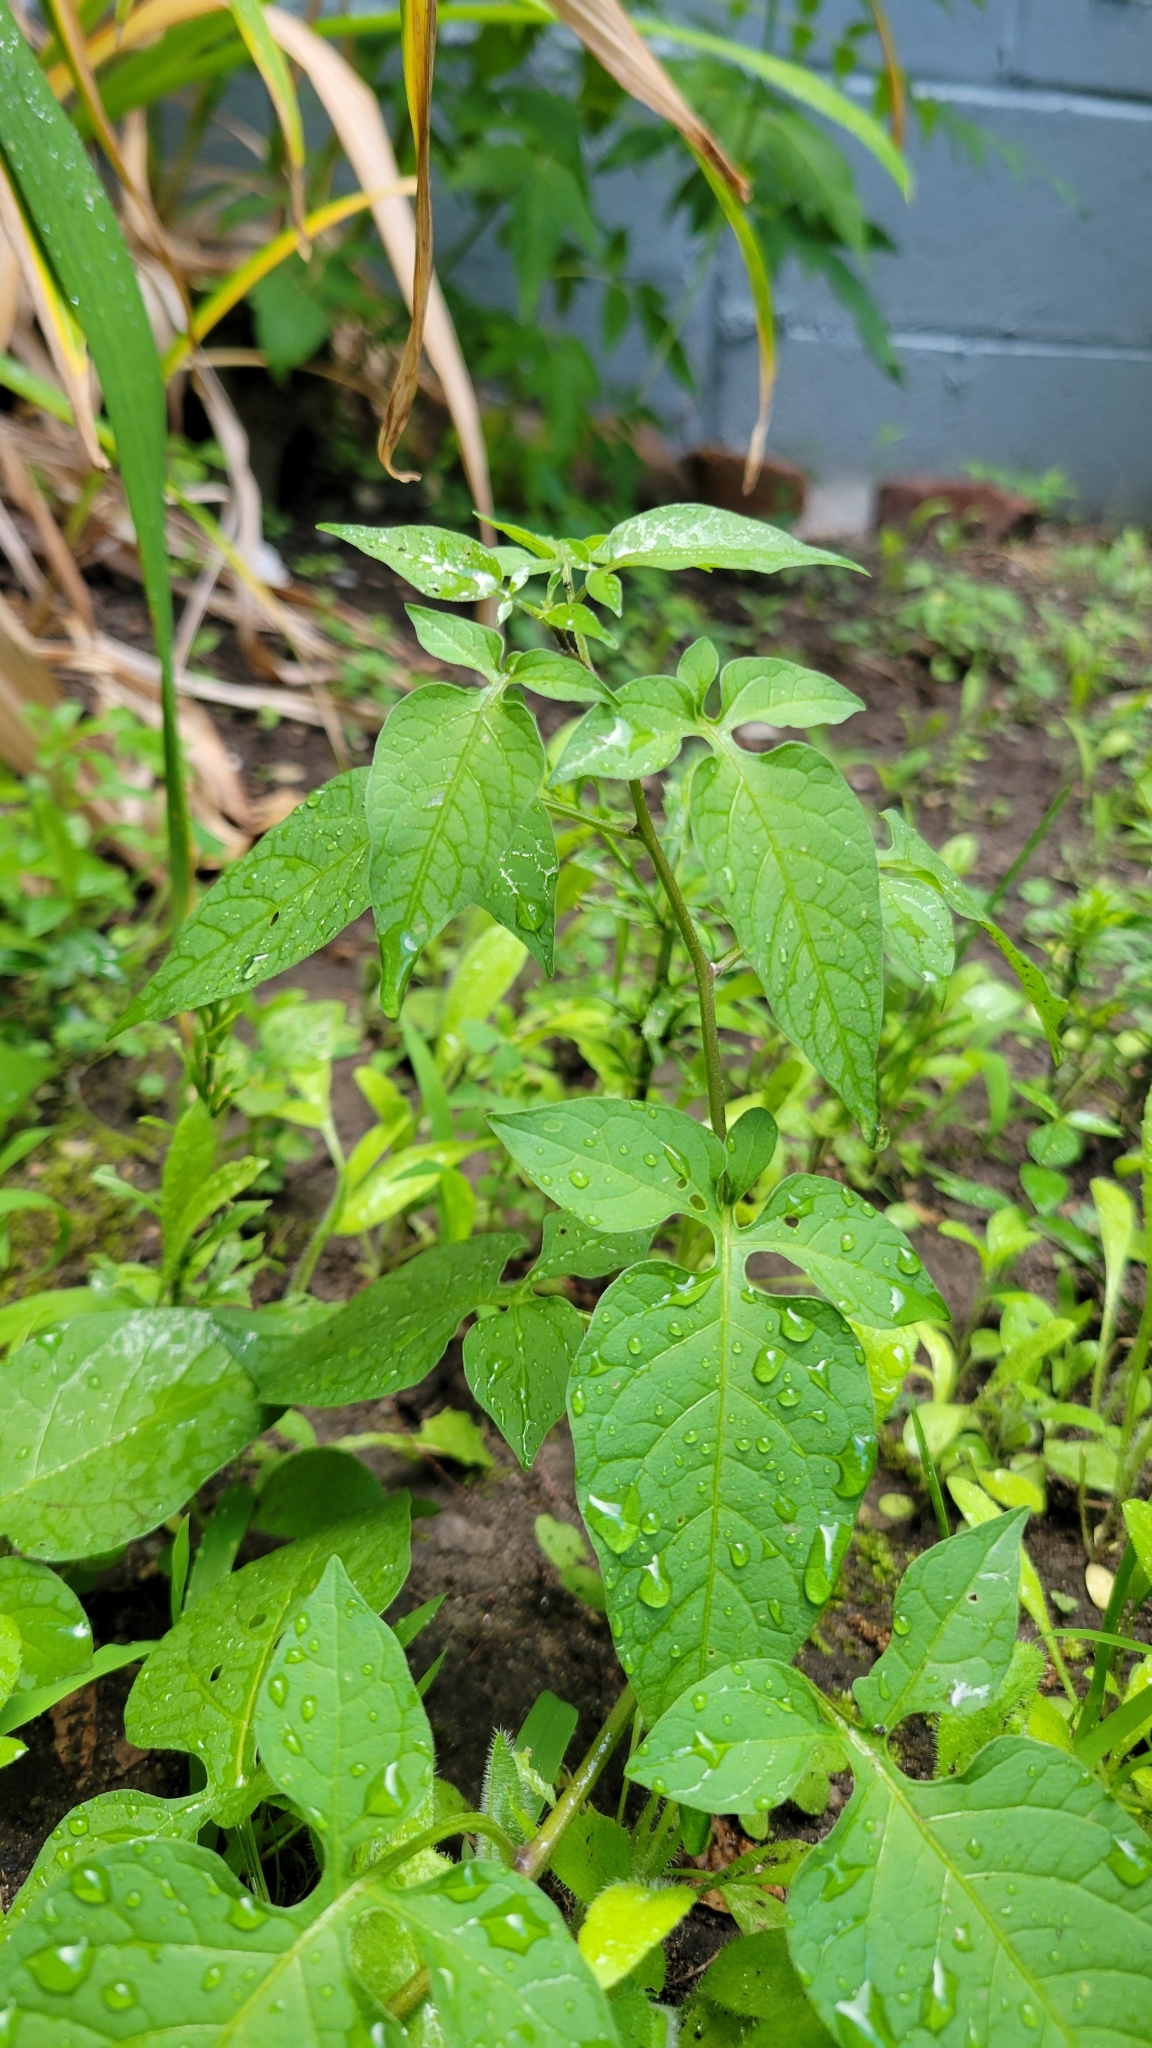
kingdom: Plantae
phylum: Tracheophyta
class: Magnoliopsida
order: Solanales
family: Solanaceae
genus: Solanum
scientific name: Solanum dulcamara
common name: Climbing nightshade
